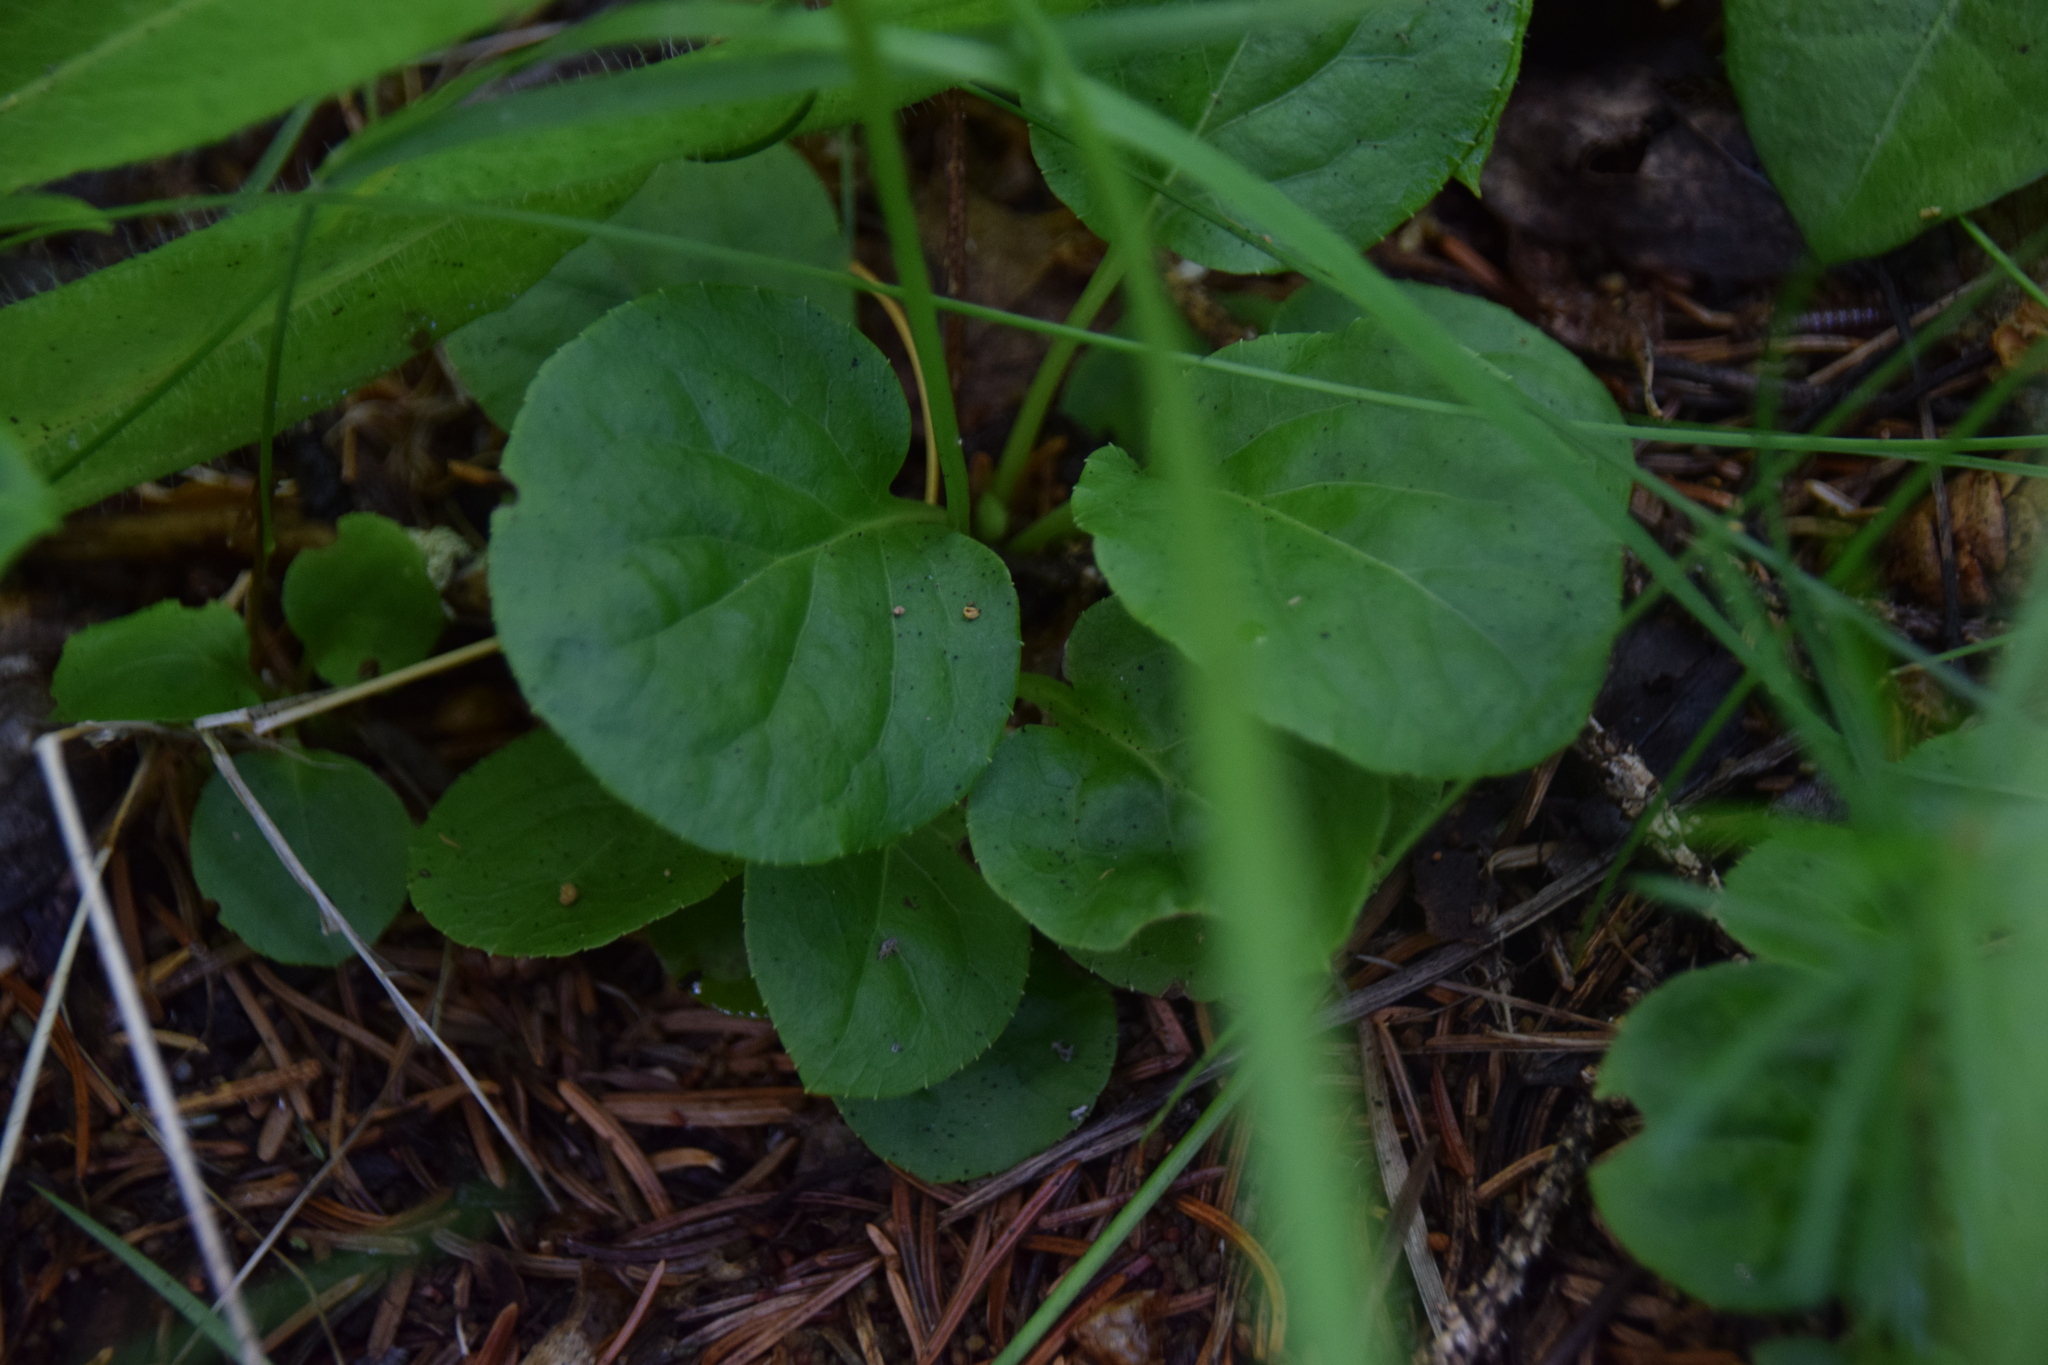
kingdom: Plantae
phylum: Tracheophyta
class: Magnoliopsida
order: Ericales
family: Ericaceae
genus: Pyrola
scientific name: Pyrola minor
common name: Common wintergreen
